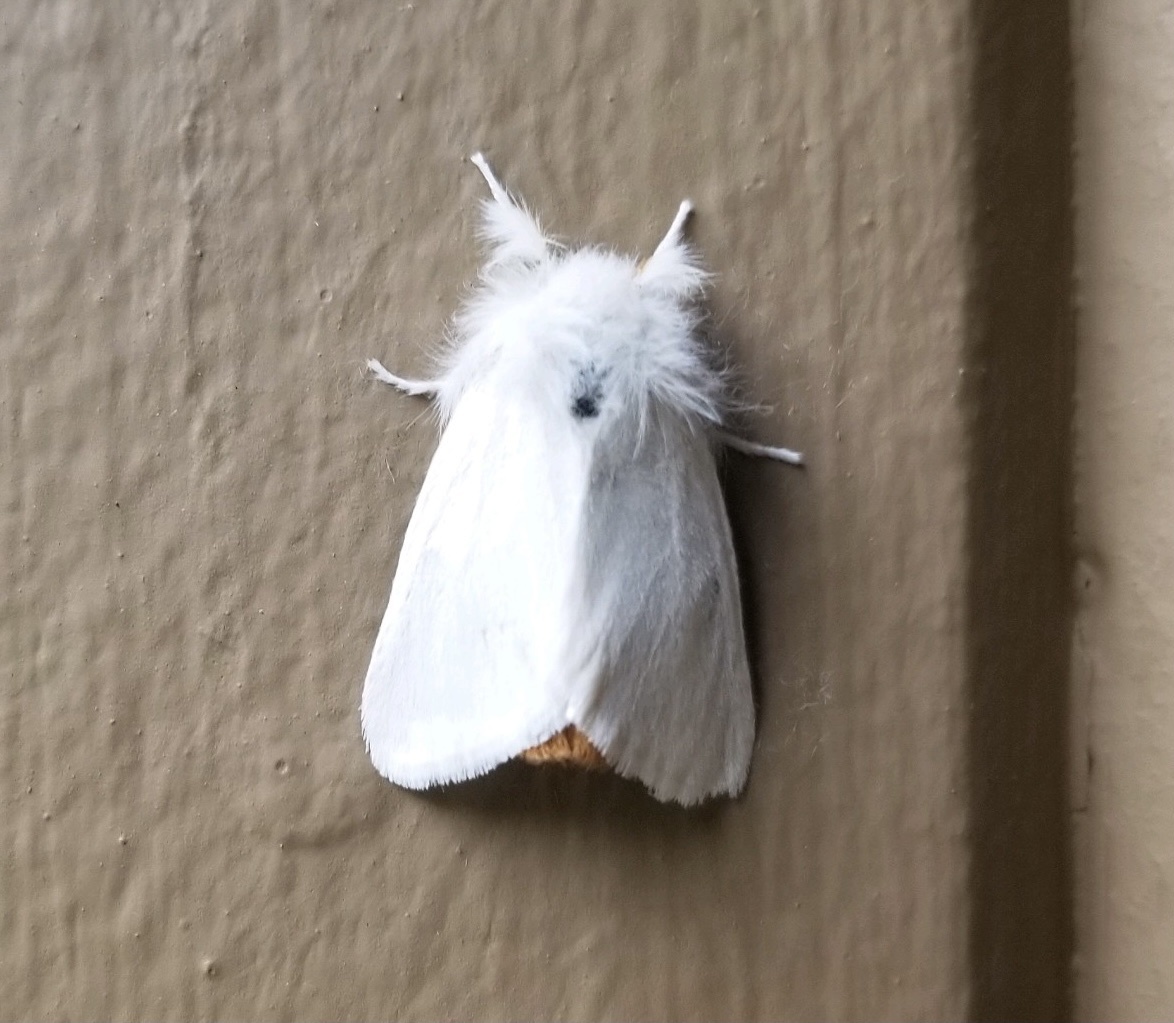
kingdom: Animalia
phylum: Arthropoda
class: Insecta
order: Lepidoptera
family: Erebidae
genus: Euproctis
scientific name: Euproctis chrysorrhoea
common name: Brown-tail
